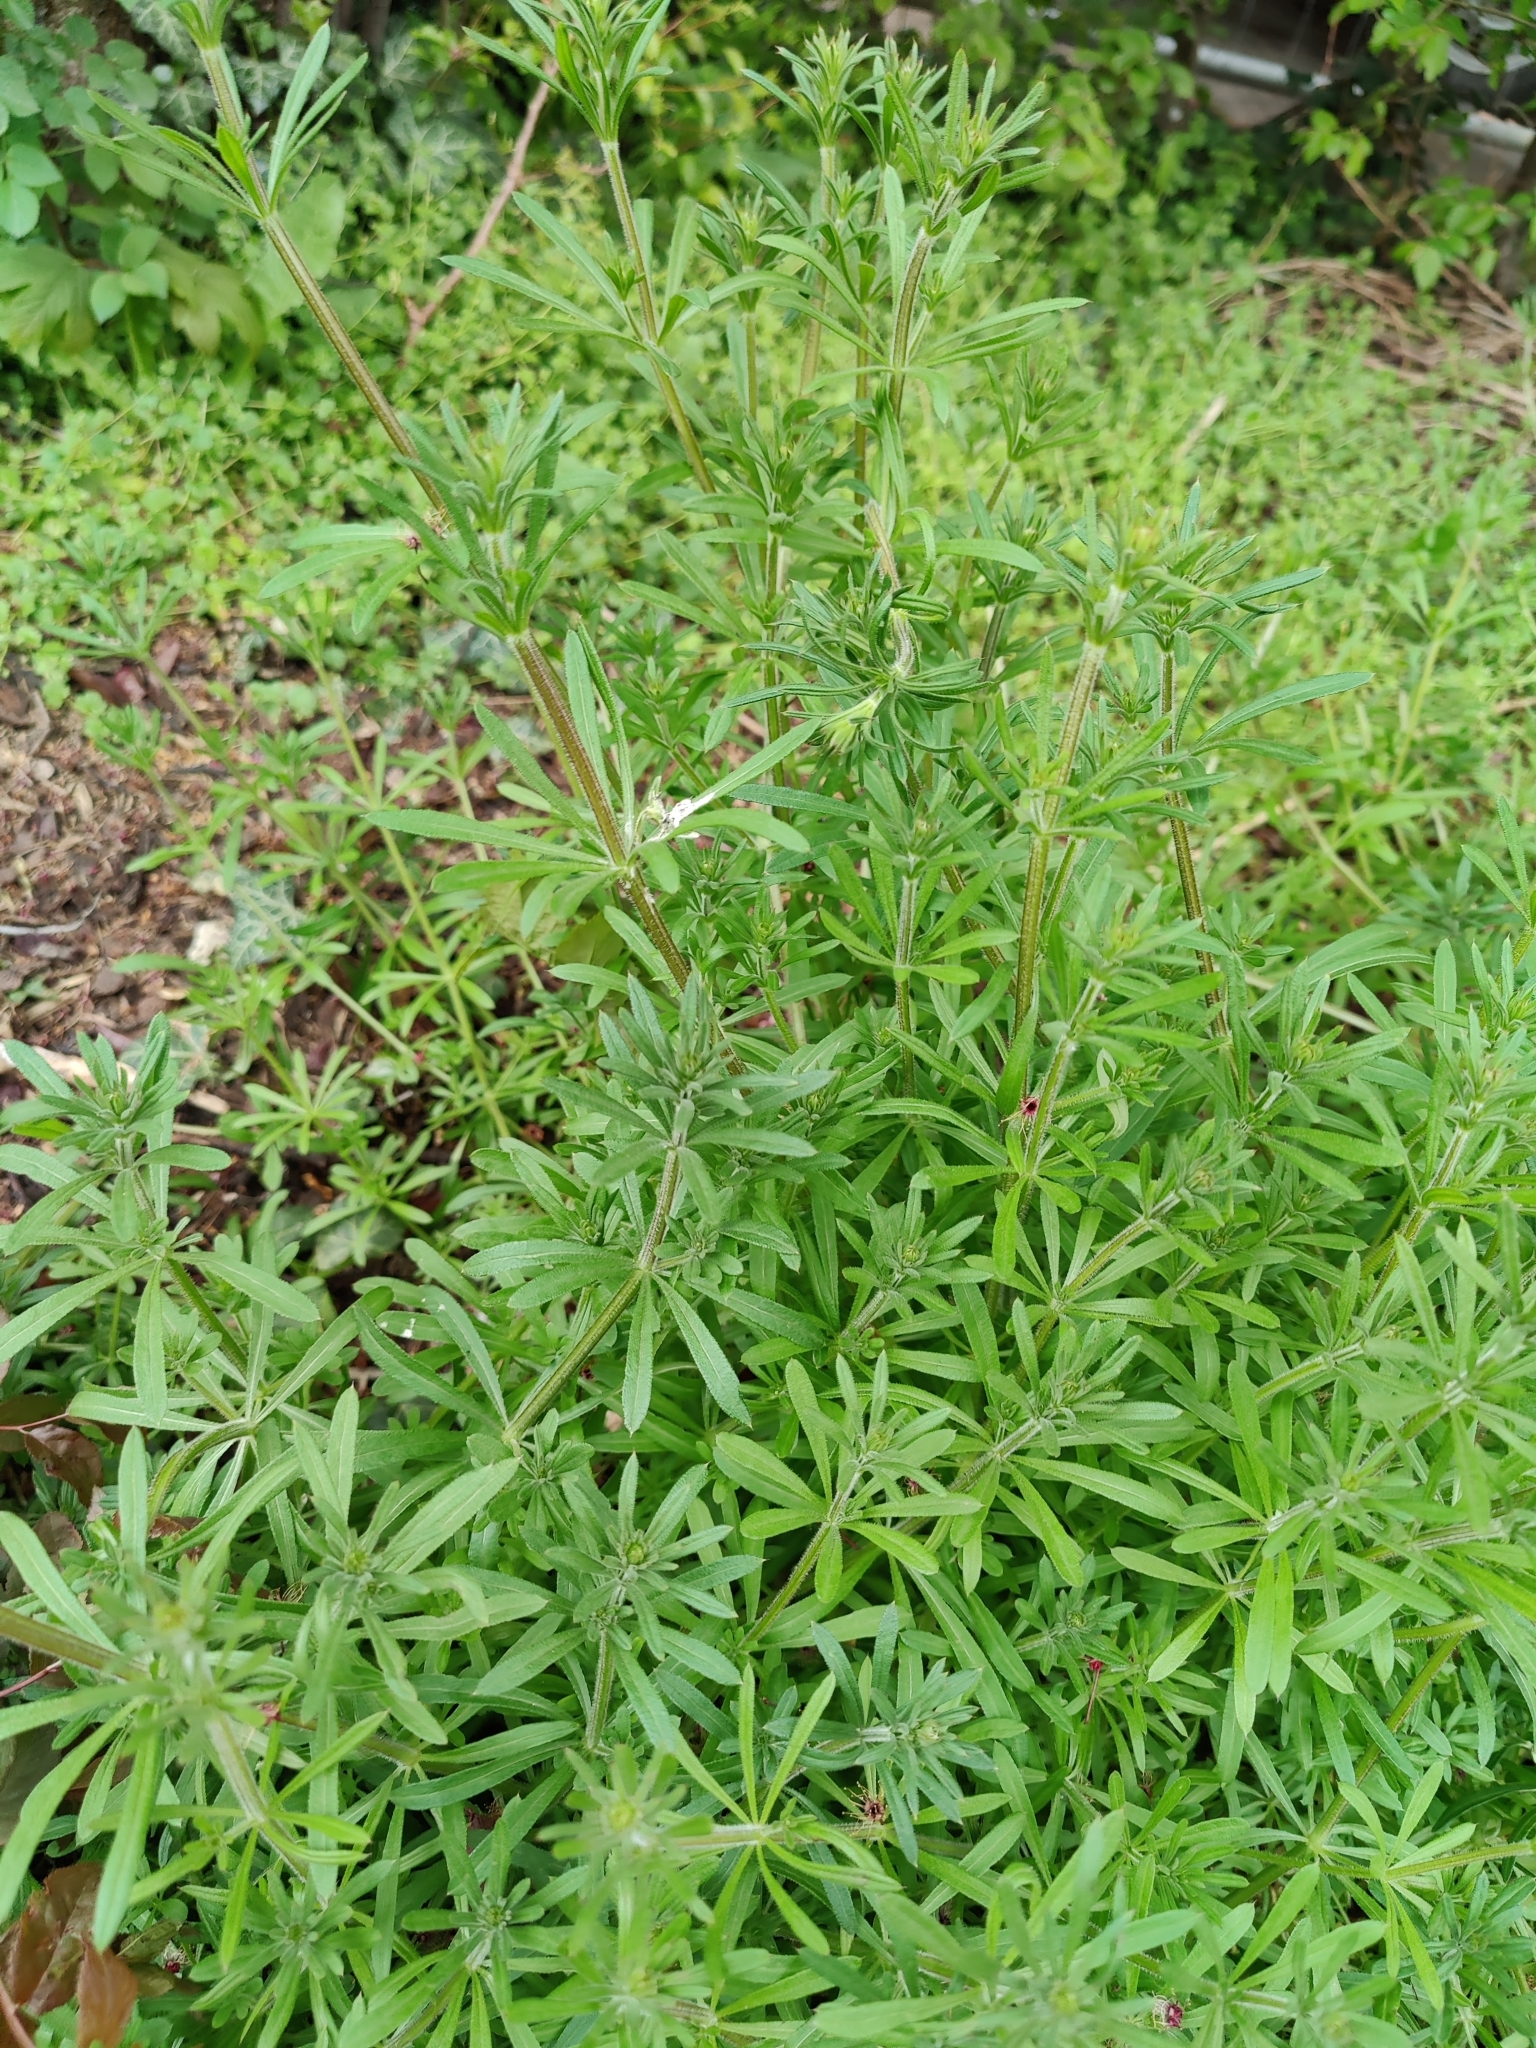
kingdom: Plantae
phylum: Tracheophyta
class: Magnoliopsida
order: Gentianales
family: Rubiaceae
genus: Galium
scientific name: Galium aparine
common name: Cleavers
